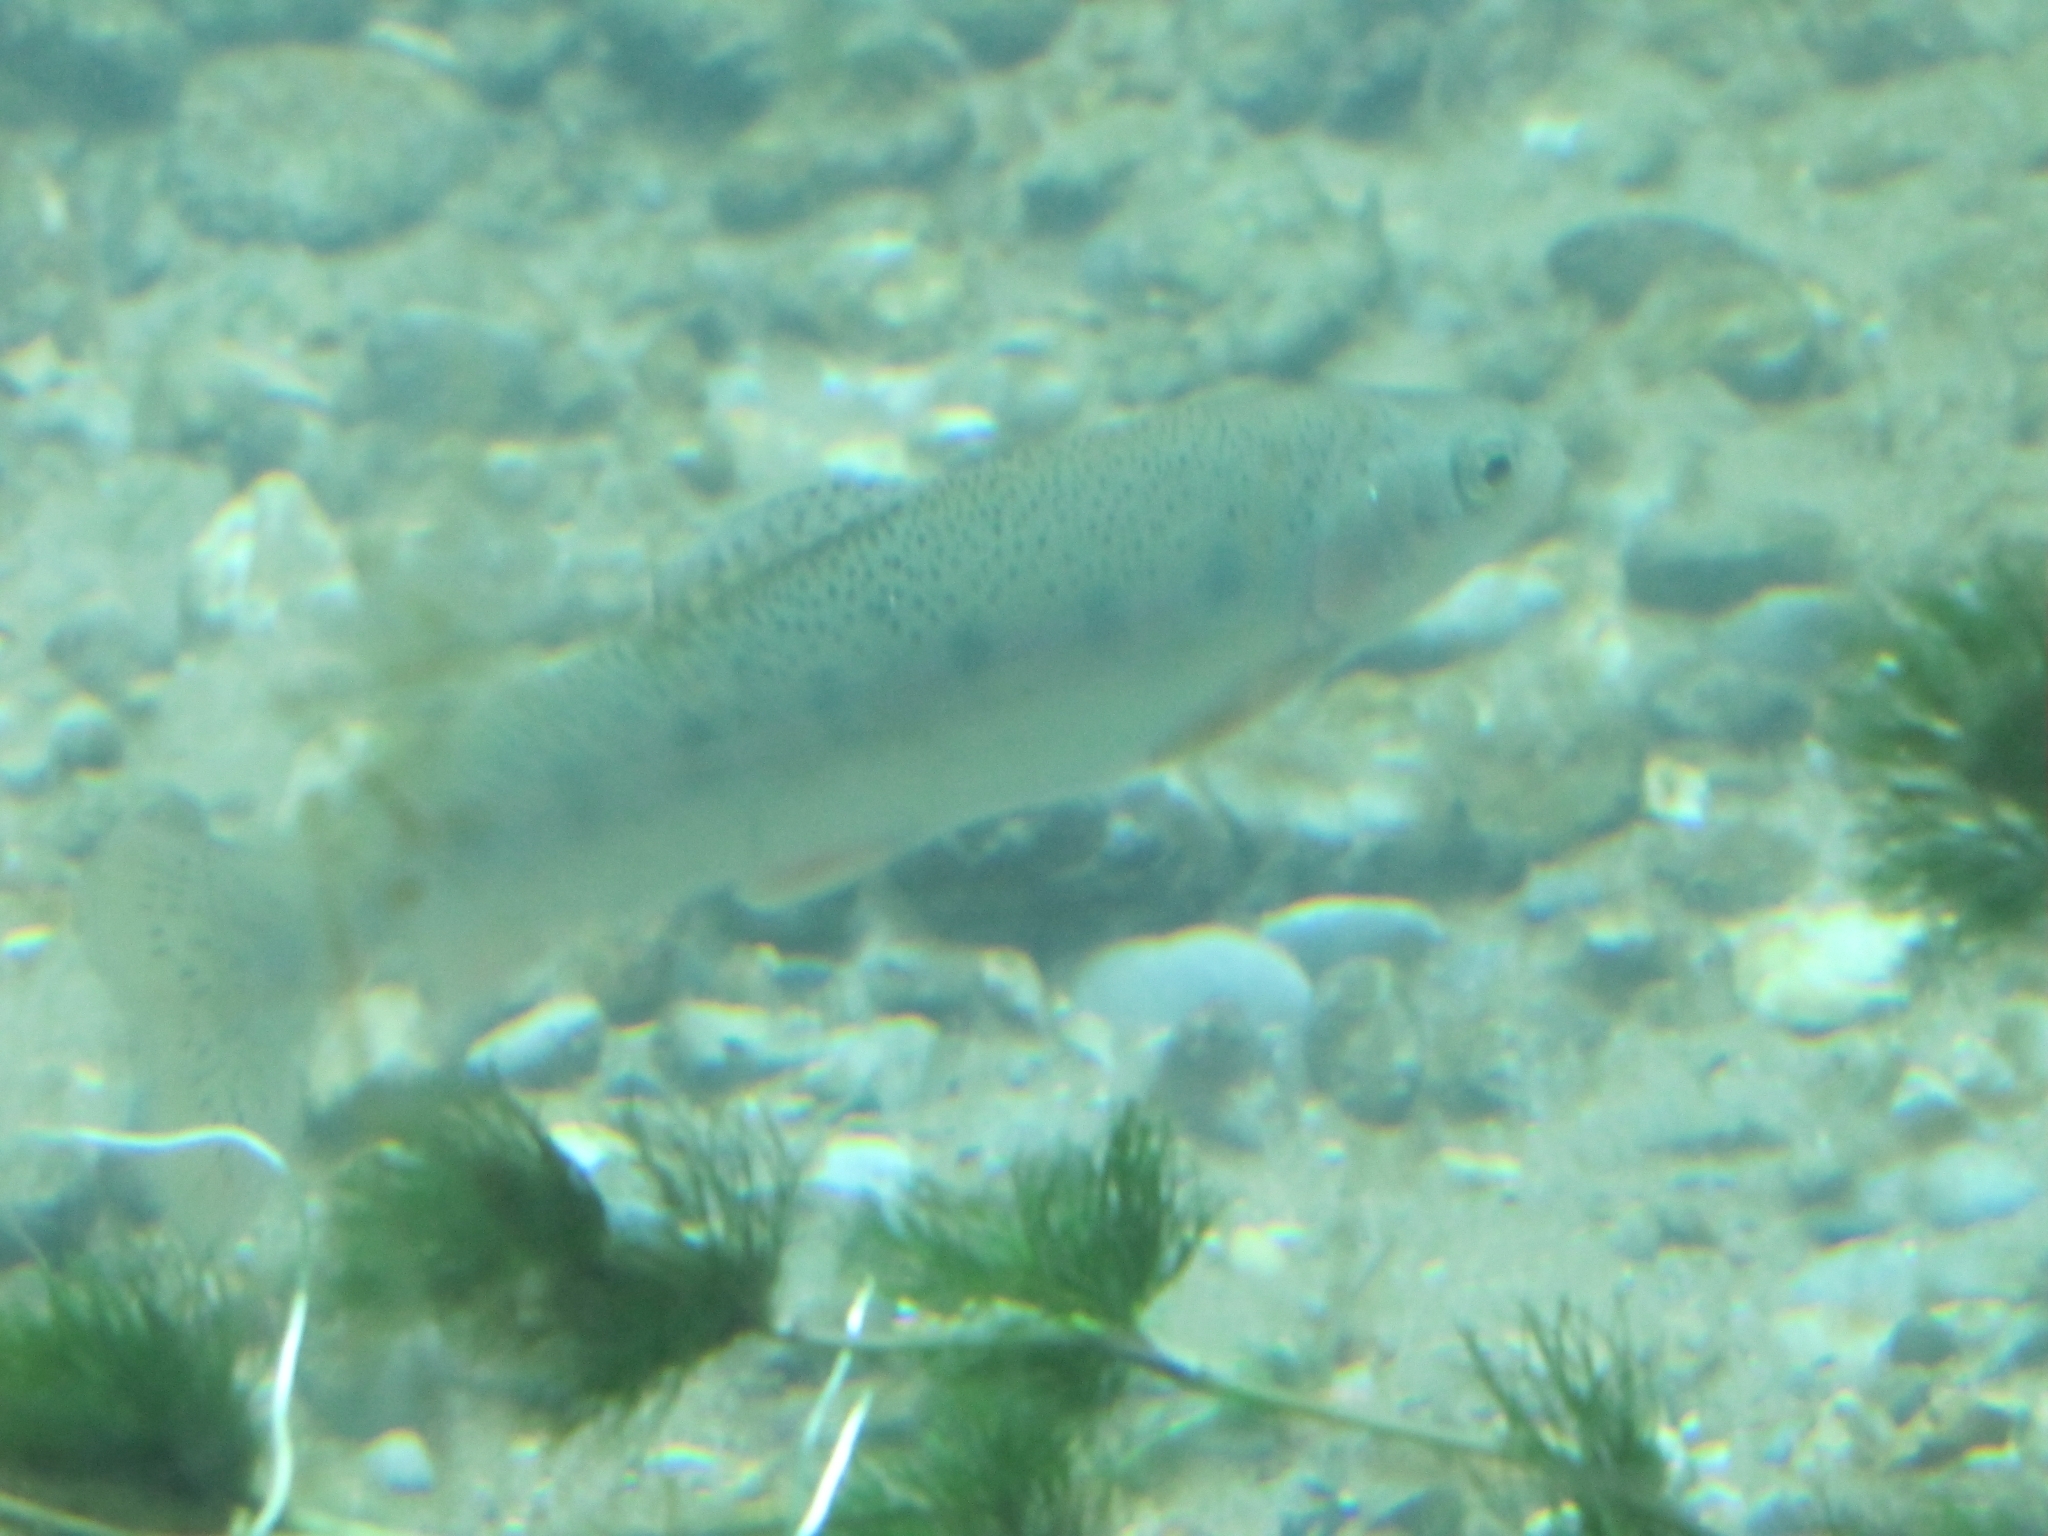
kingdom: Animalia
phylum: Chordata
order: Salmoniformes
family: Salmonidae
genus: Oncorhynchus
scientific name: Oncorhynchus mykiss
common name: Rainbow trout
